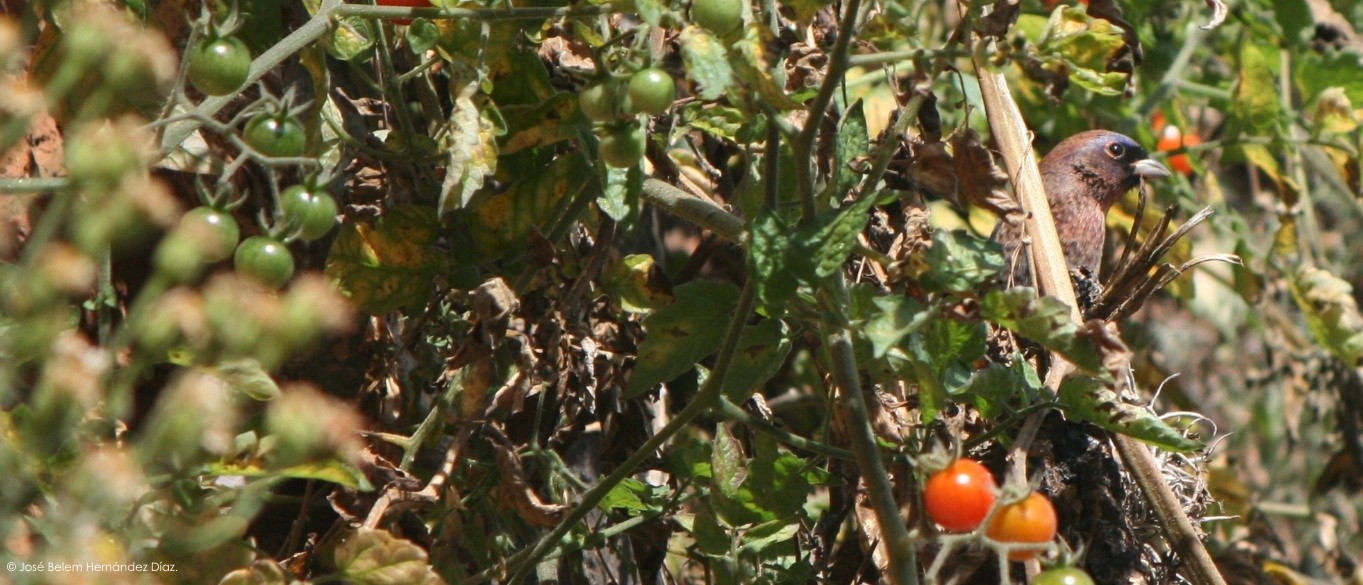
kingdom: Animalia
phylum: Chordata
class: Aves
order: Passeriformes
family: Cardinalidae
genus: Passerina
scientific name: Passerina versicolor
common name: Varied bunting
